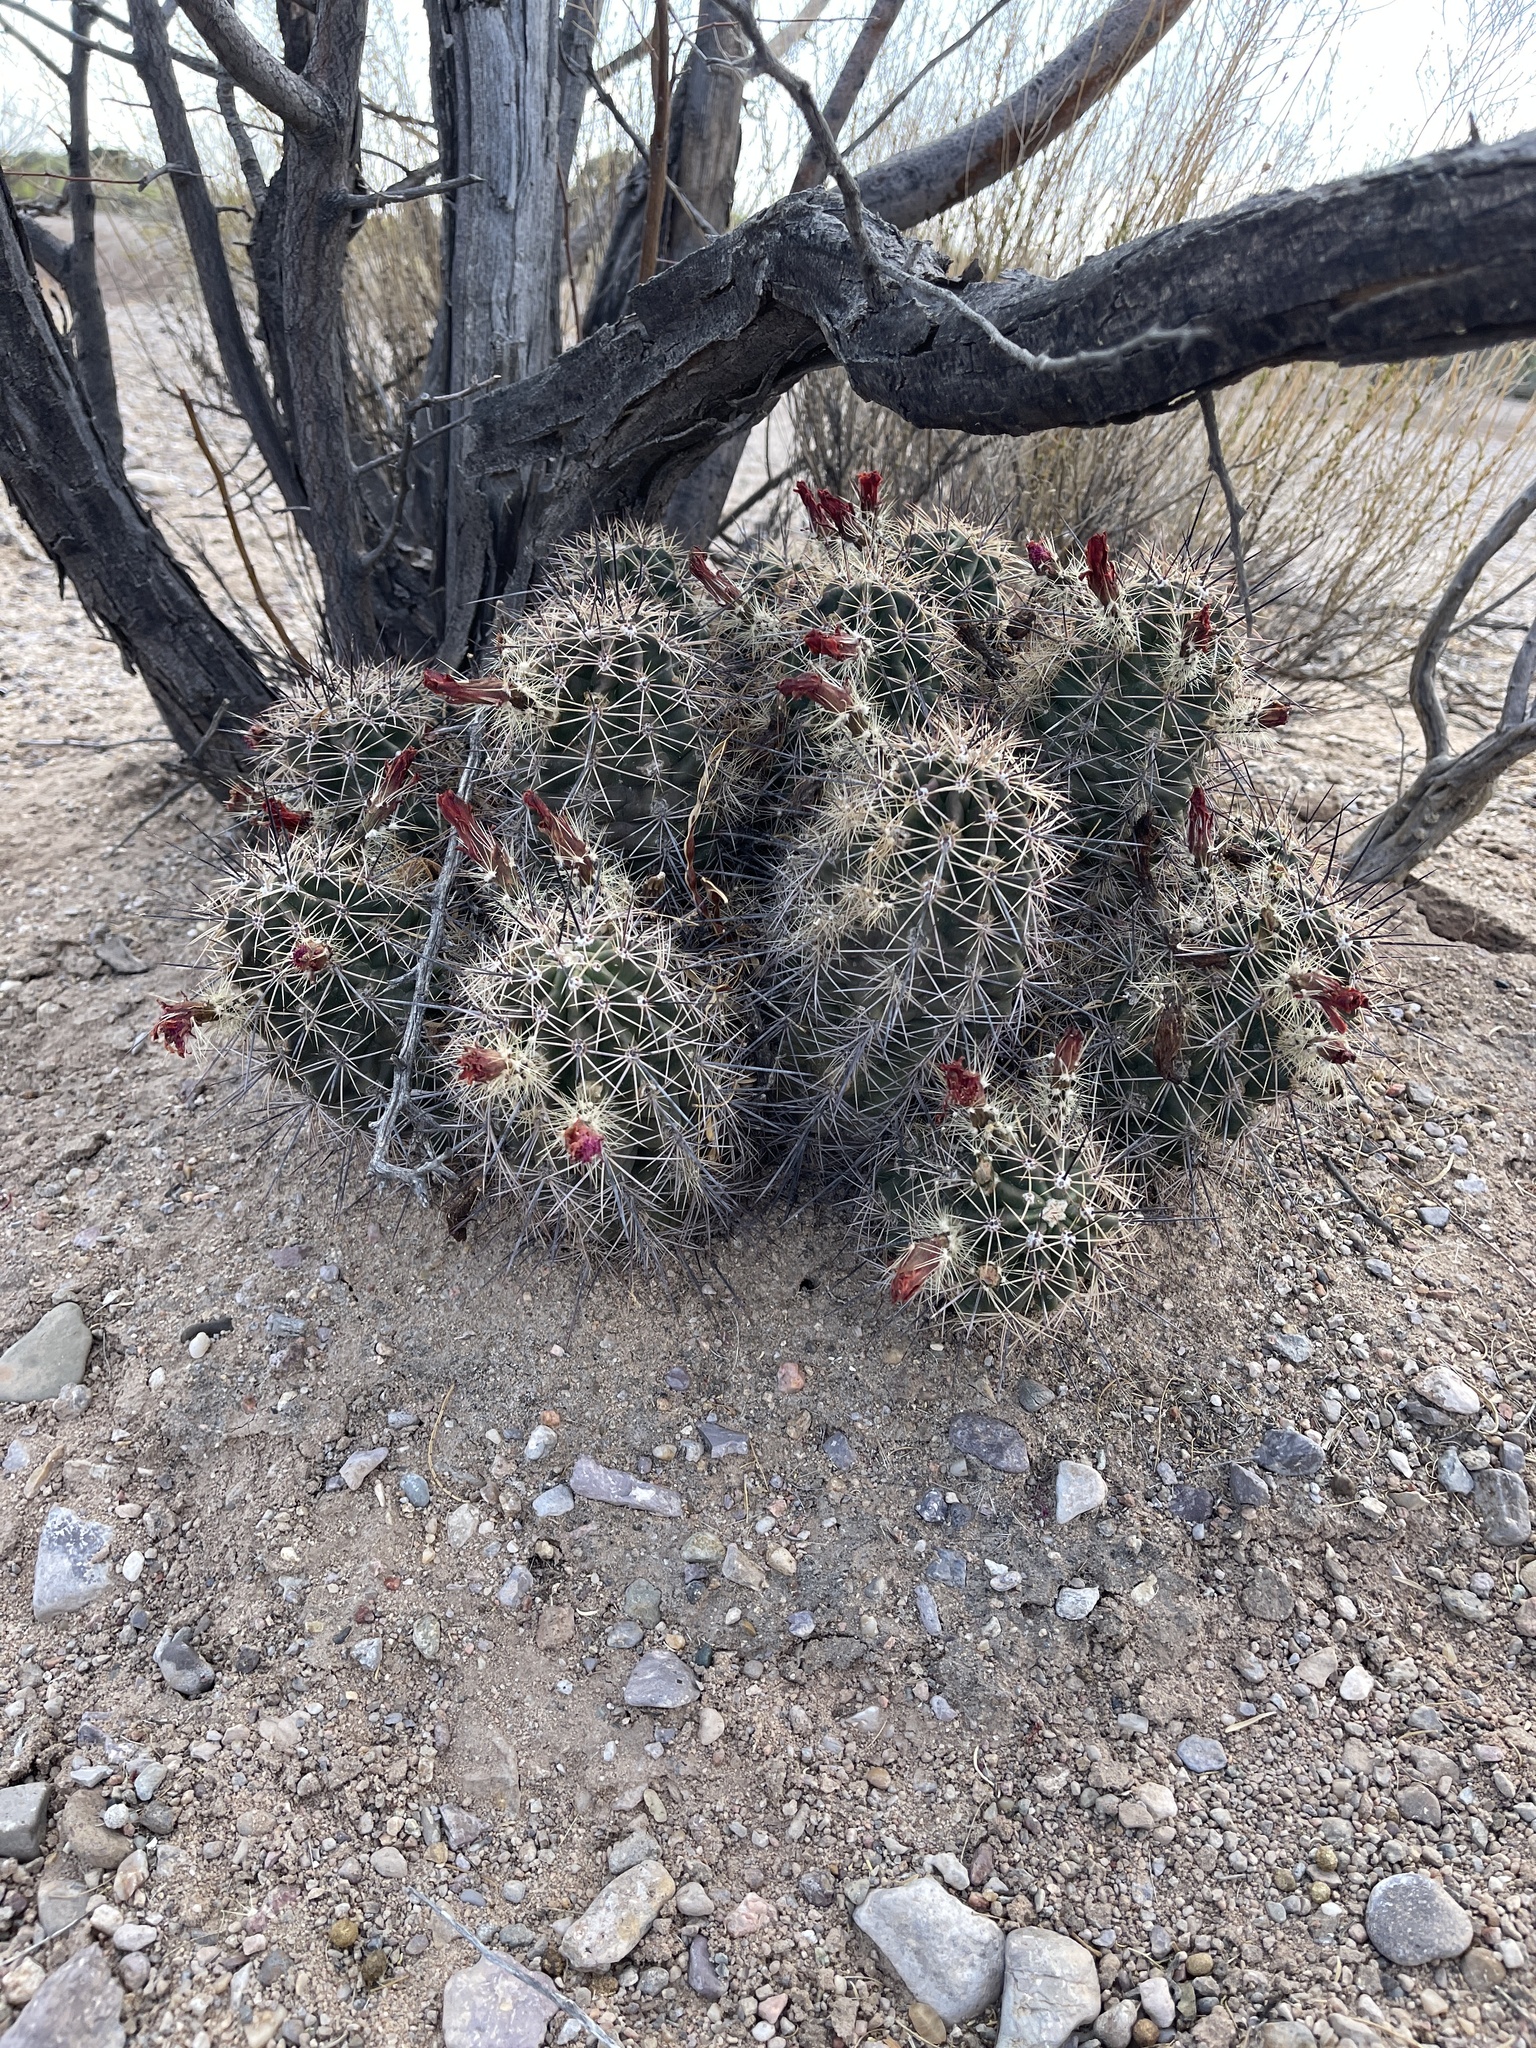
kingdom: Plantae
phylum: Tracheophyta
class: Magnoliopsida
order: Caryophyllales
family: Cactaceae
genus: Echinocereus
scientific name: Echinocereus coccineus
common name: Scarlet hedgehog cactus
